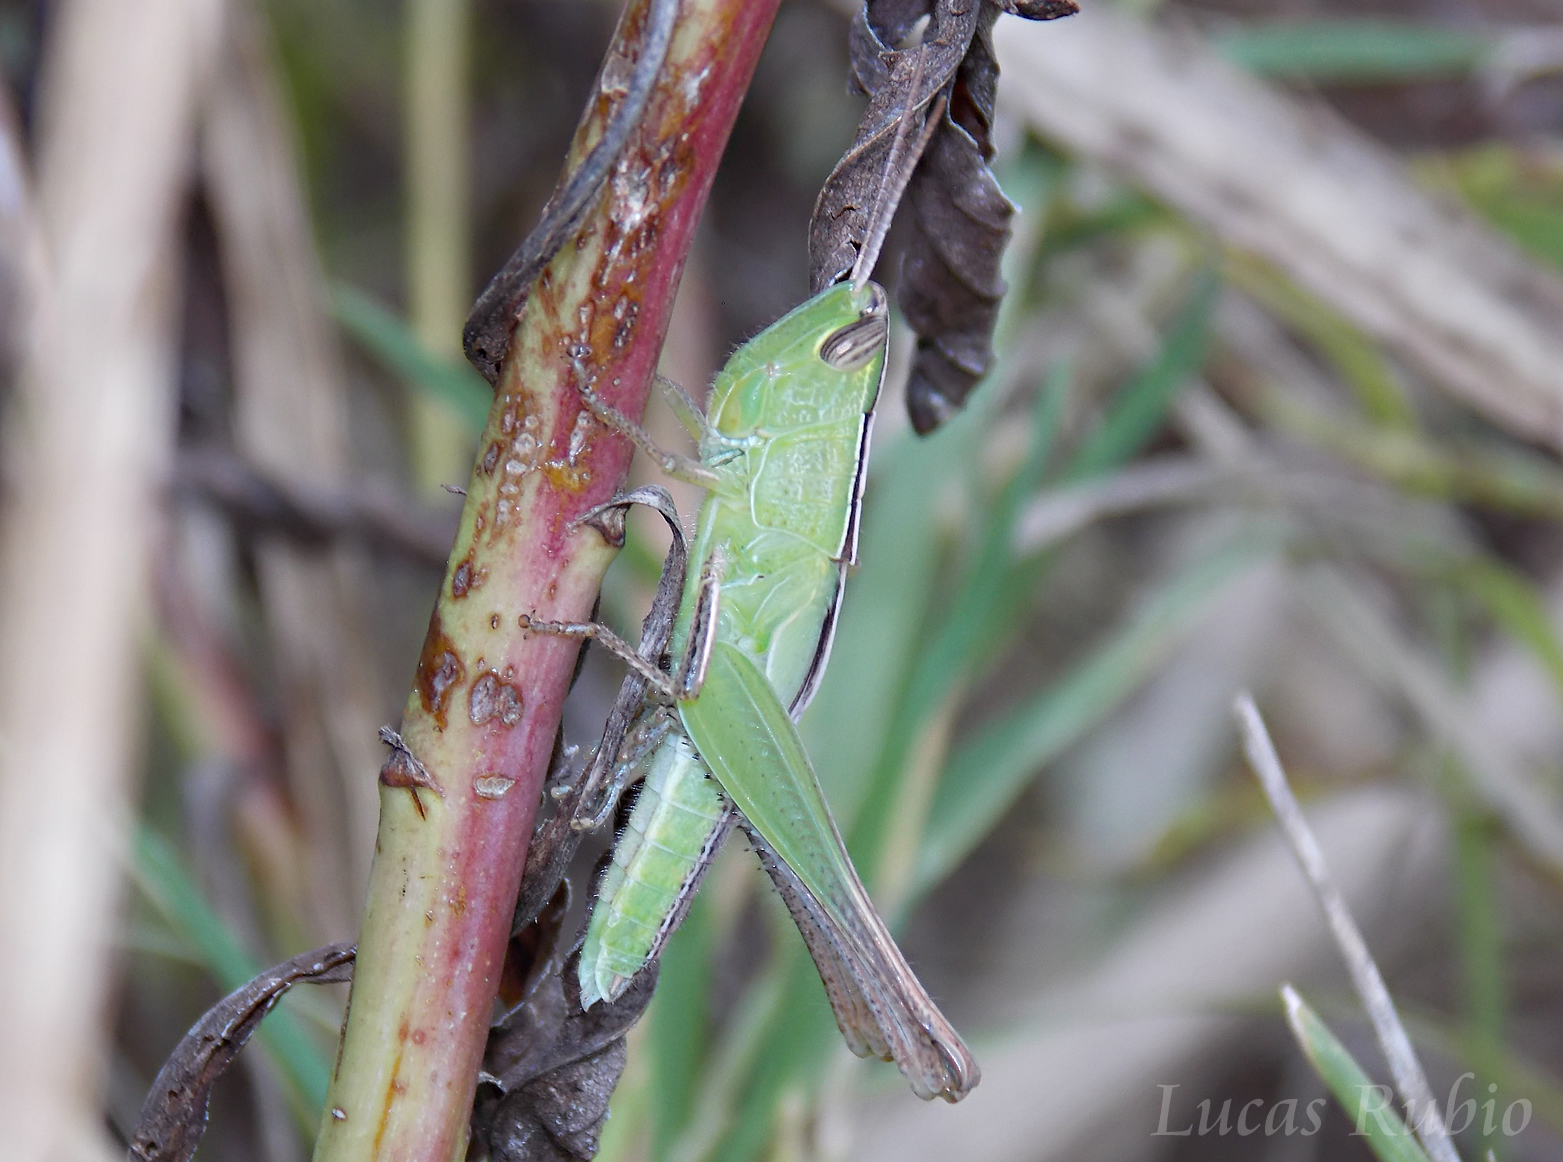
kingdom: Animalia
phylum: Arthropoda
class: Insecta
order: Orthoptera
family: Acrididae
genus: Staurorhectus
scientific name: Staurorhectus longicornis
